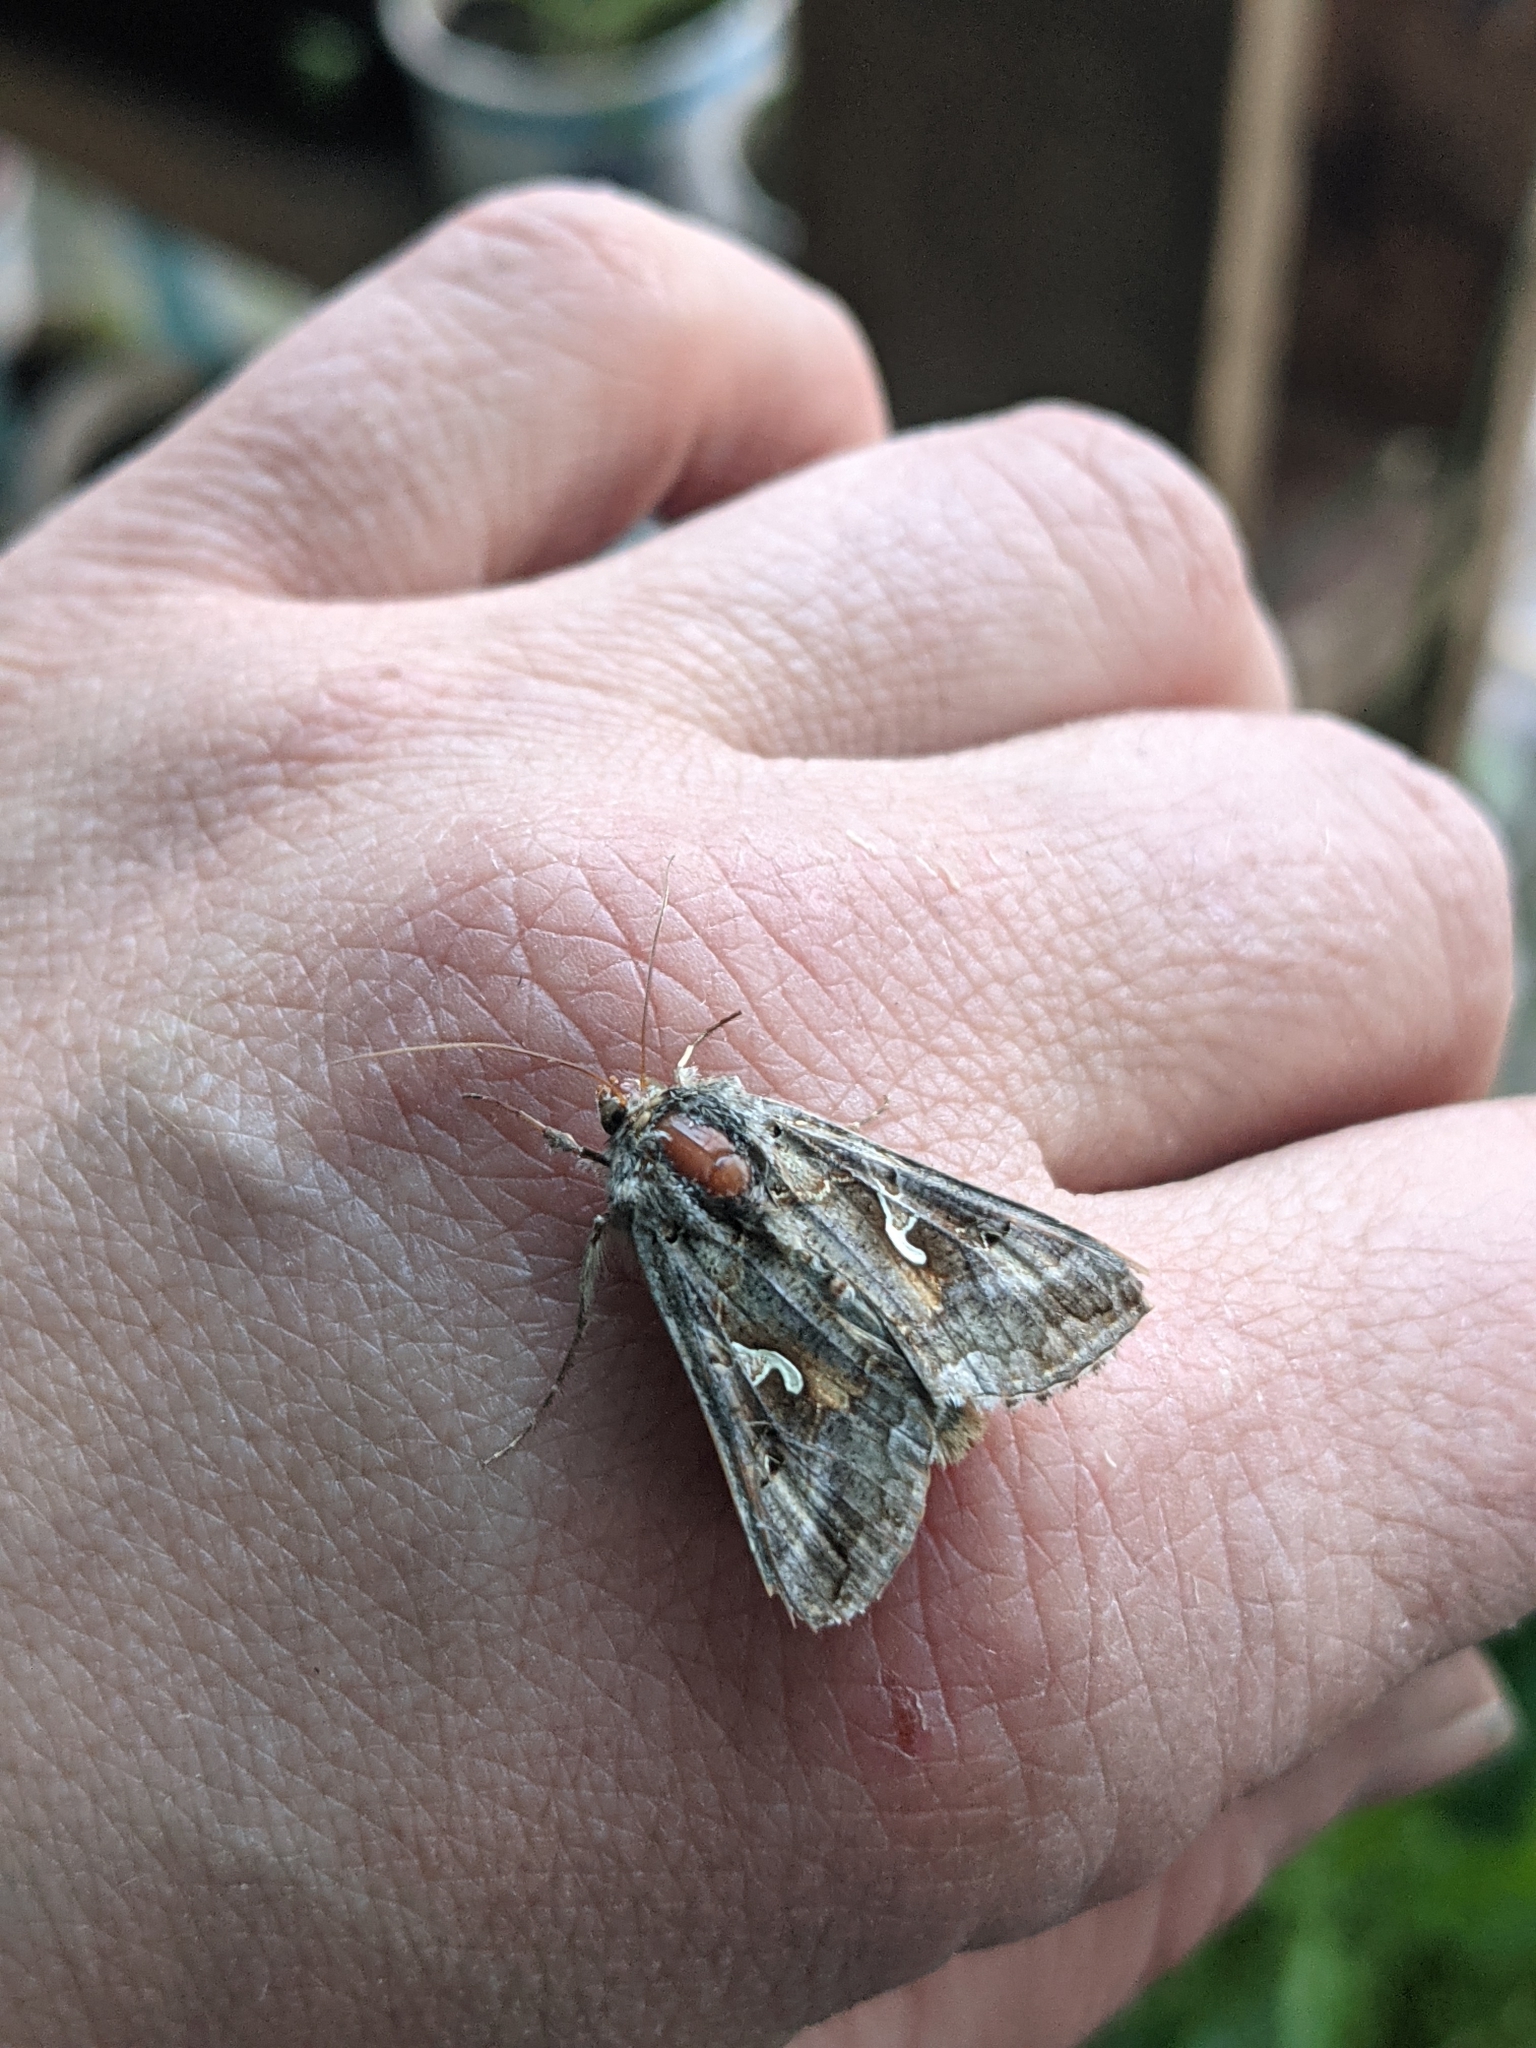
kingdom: Animalia
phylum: Arthropoda
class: Insecta
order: Lepidoptera
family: Noctuidae
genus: Autographa
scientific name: Autographa gamma
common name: Silver y
